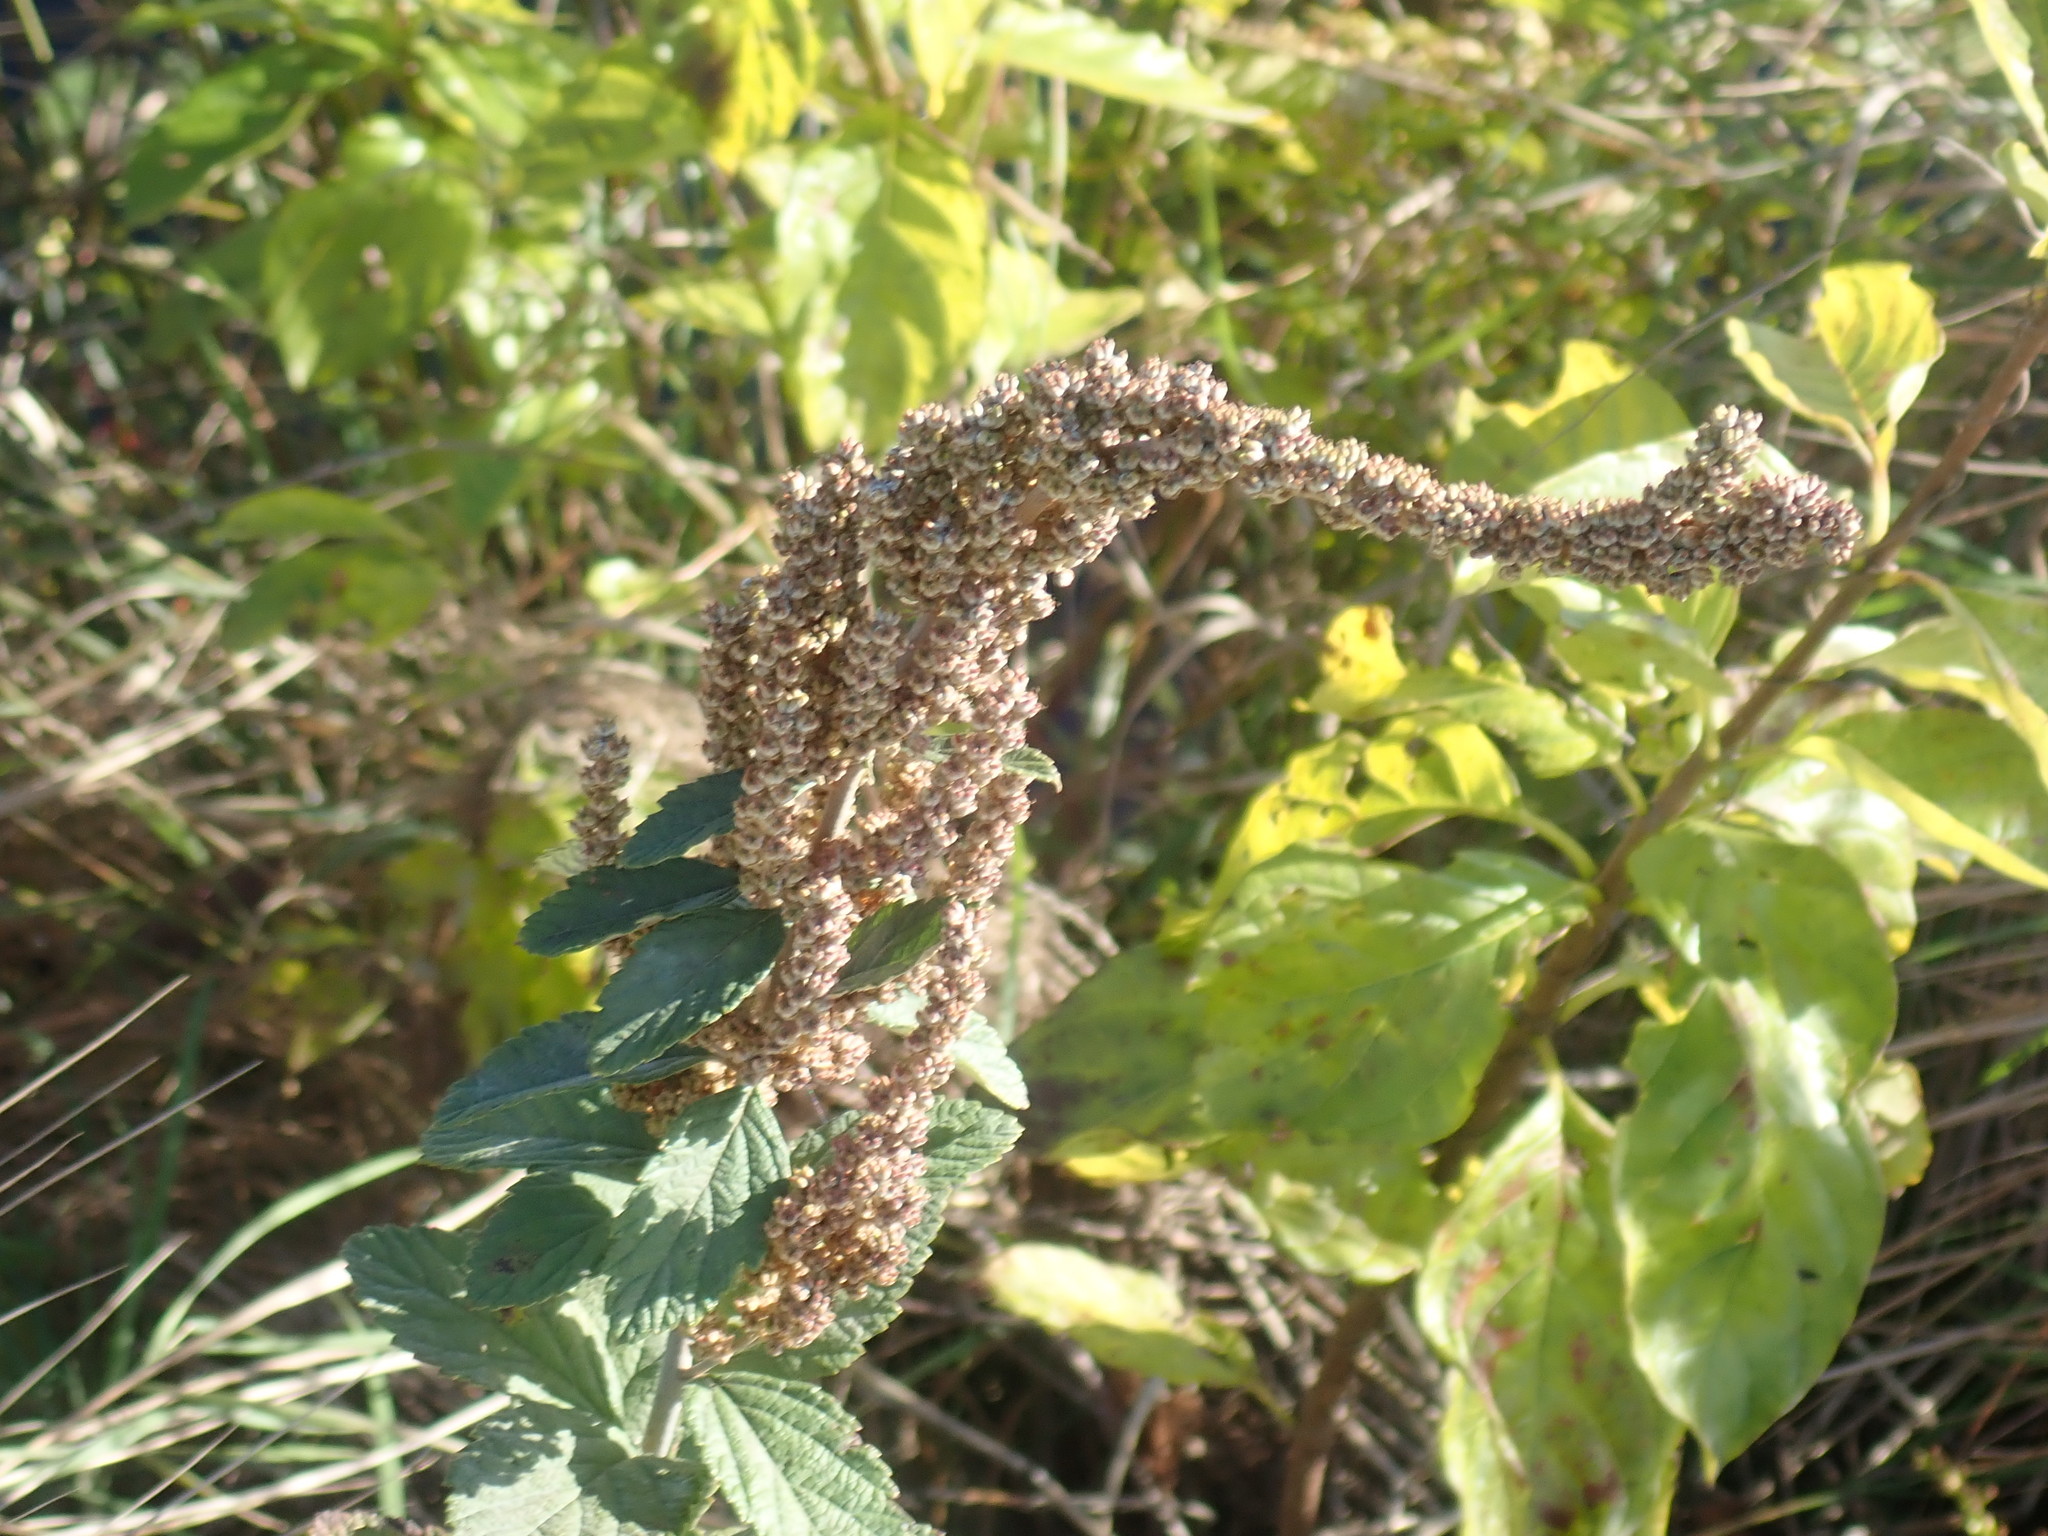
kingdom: Plantae
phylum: Tracheophyta
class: Magnoliopsida
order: Rosales
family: Rosaceae
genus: Spiraea
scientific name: Spiraea tomentosa
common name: Hardhack
